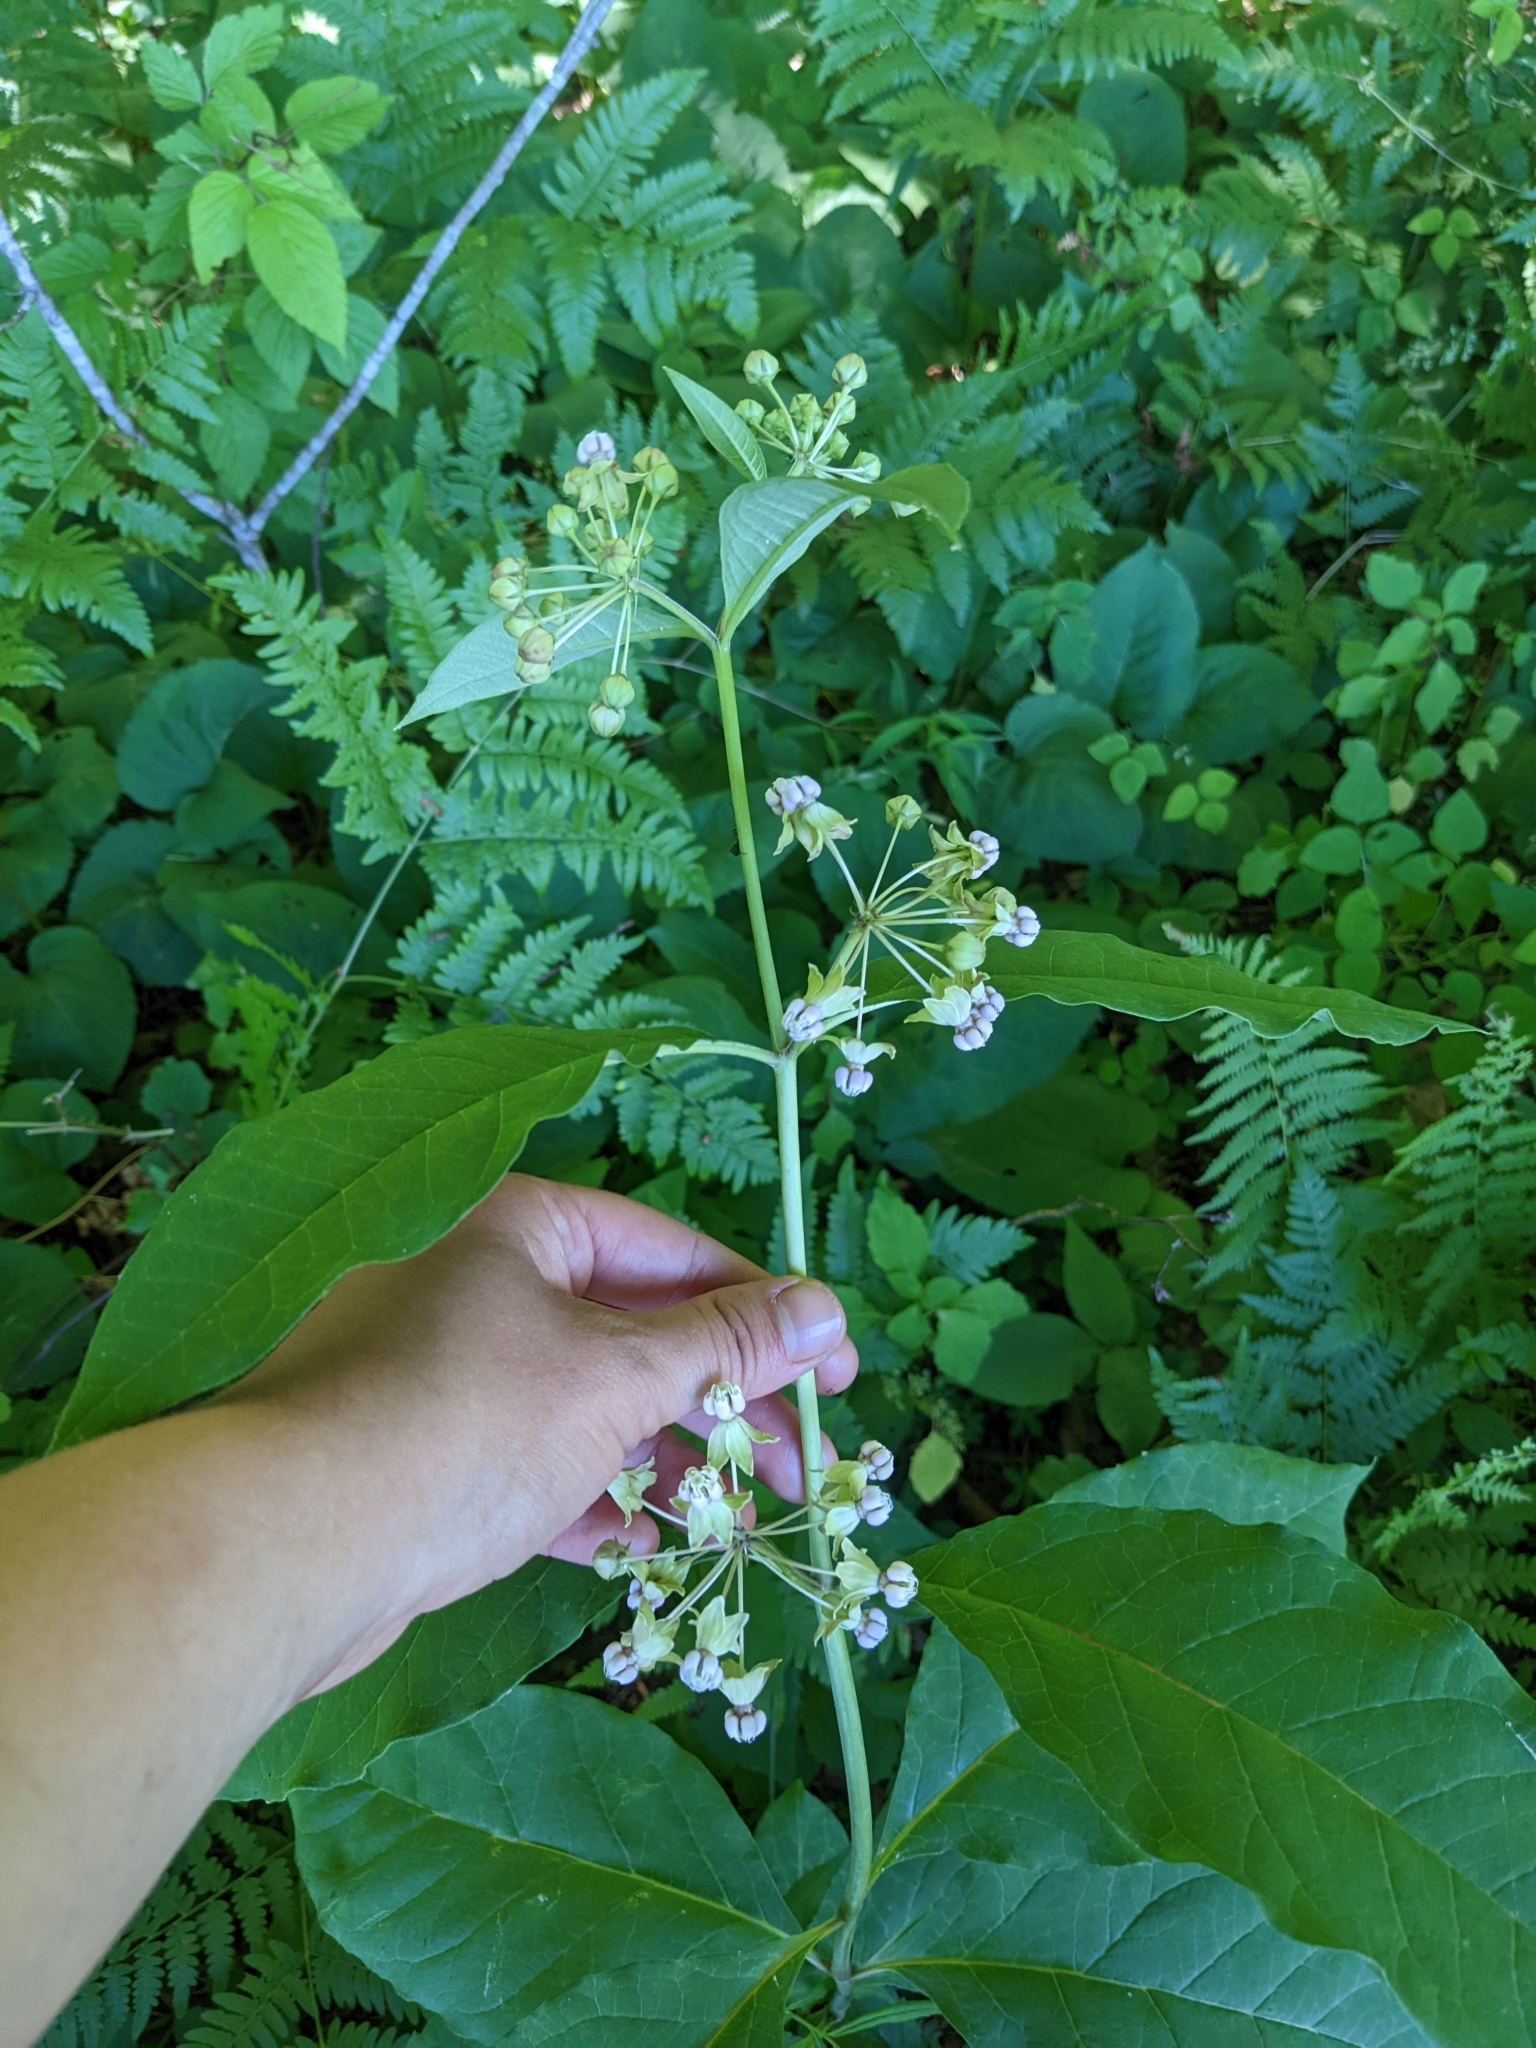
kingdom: Plantae
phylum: Tracheophyta
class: Magnoliopsida
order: Gentianales
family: Apocynaceae
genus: Asclepias
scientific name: Asclepias exaltata
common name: Poke milkweed
